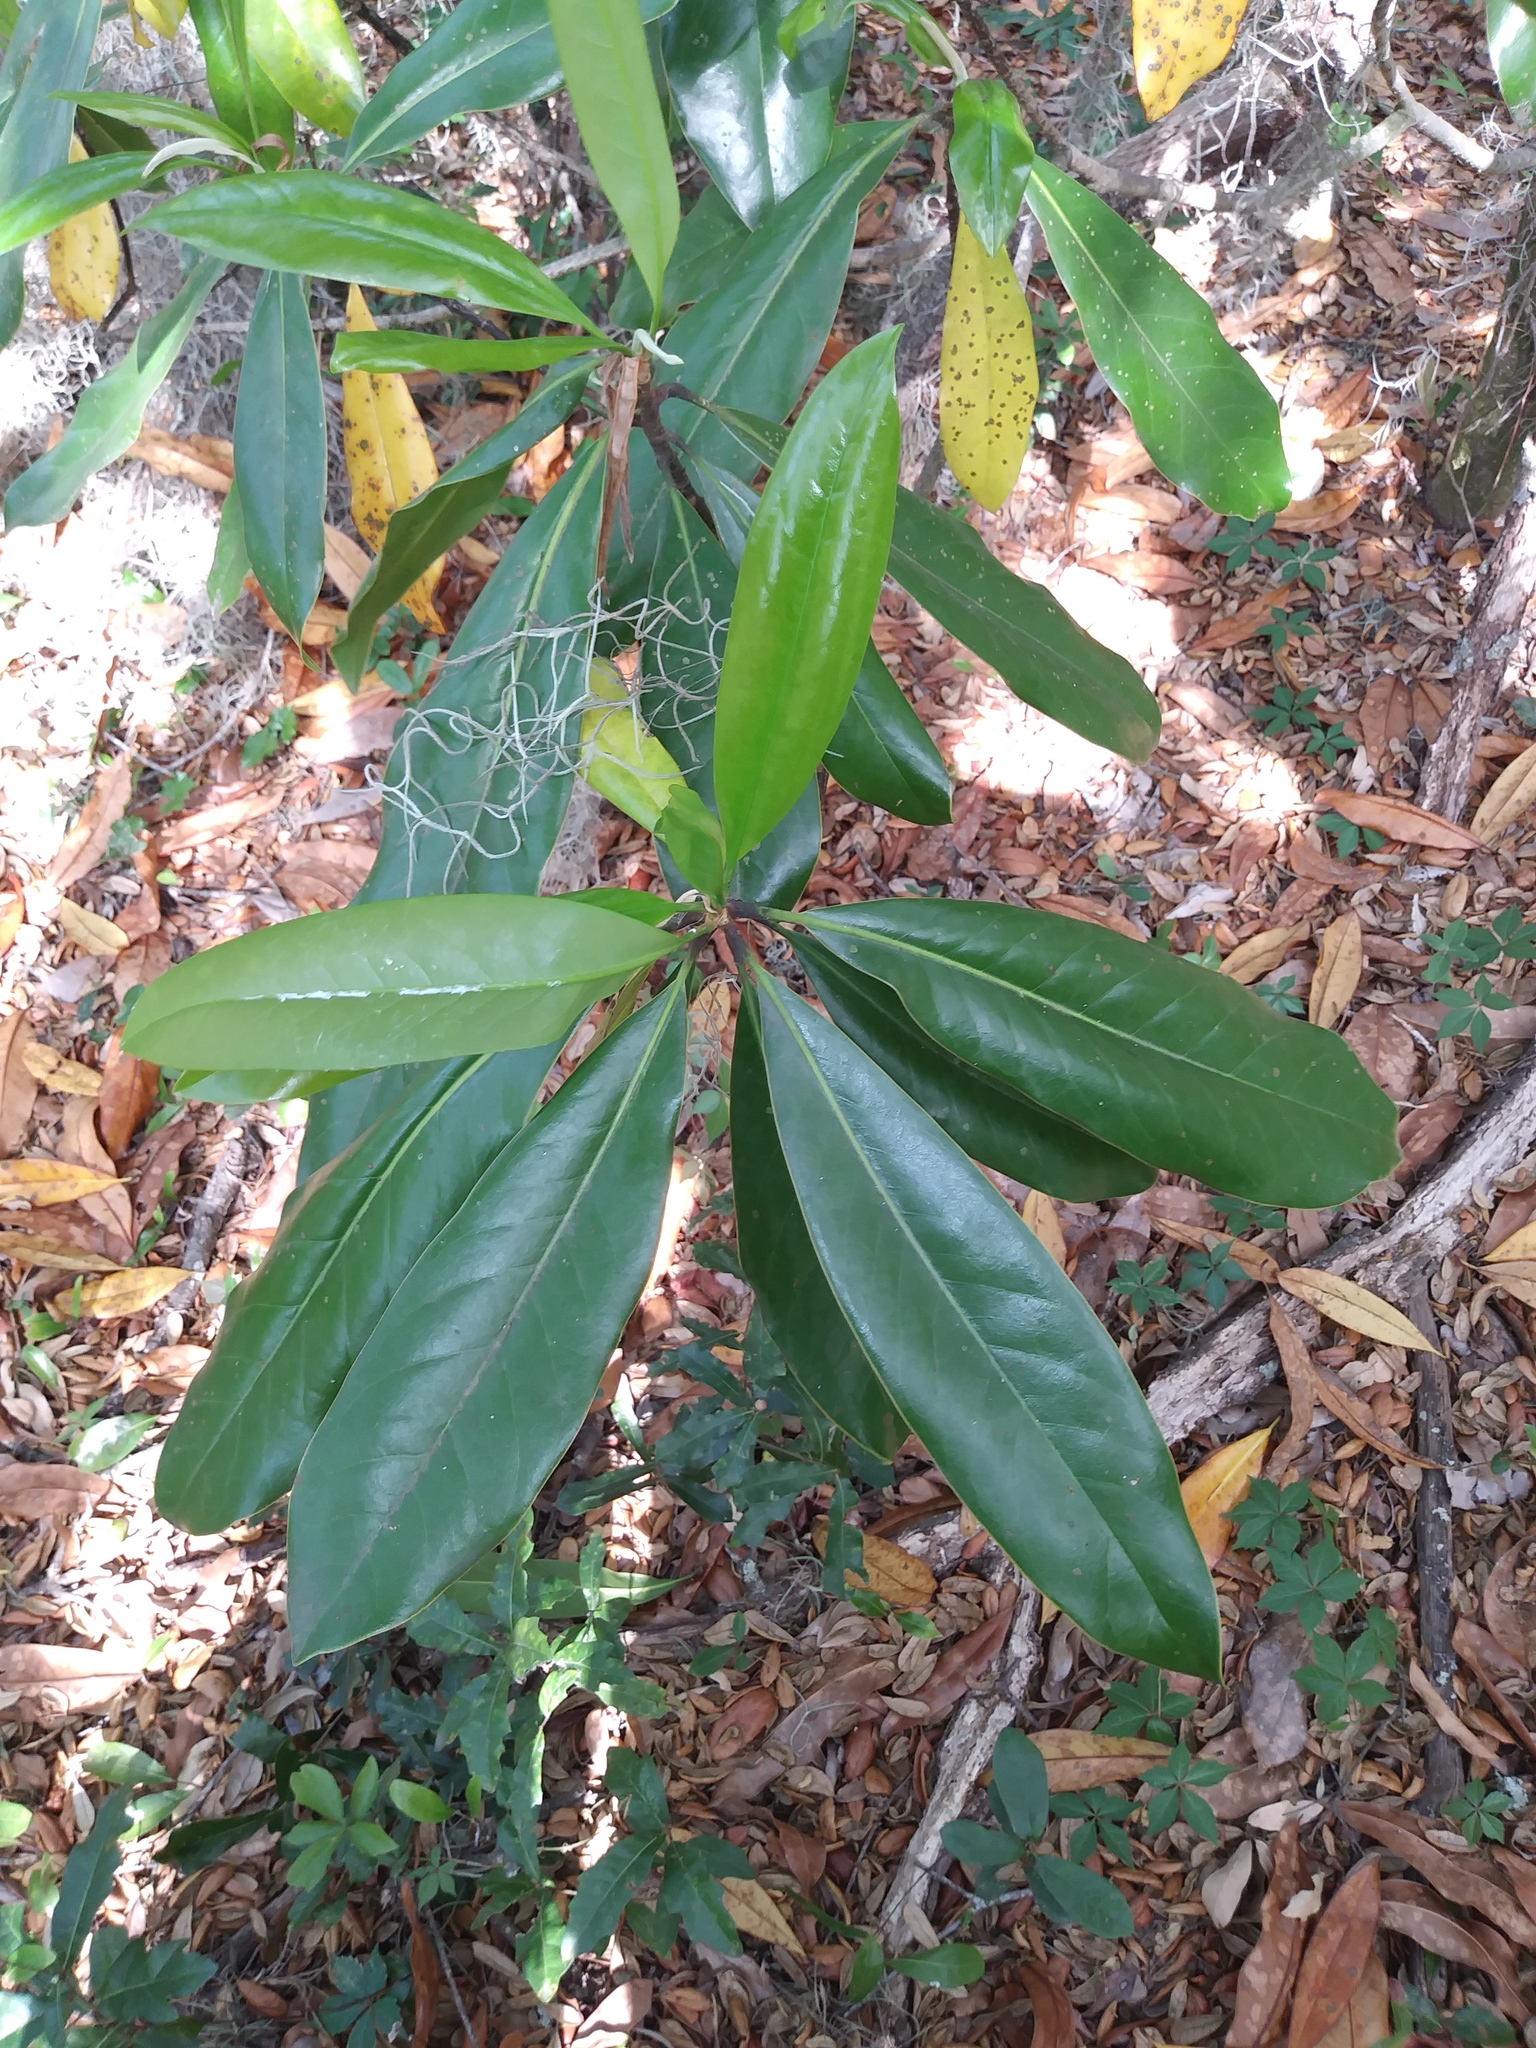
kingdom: Plantae
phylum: Tracheophyta
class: Magnoliopsida
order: Magnoliales
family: Magnoliaceae
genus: Magnolia
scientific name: Magnolia grandiflora
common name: Southern magnolia
